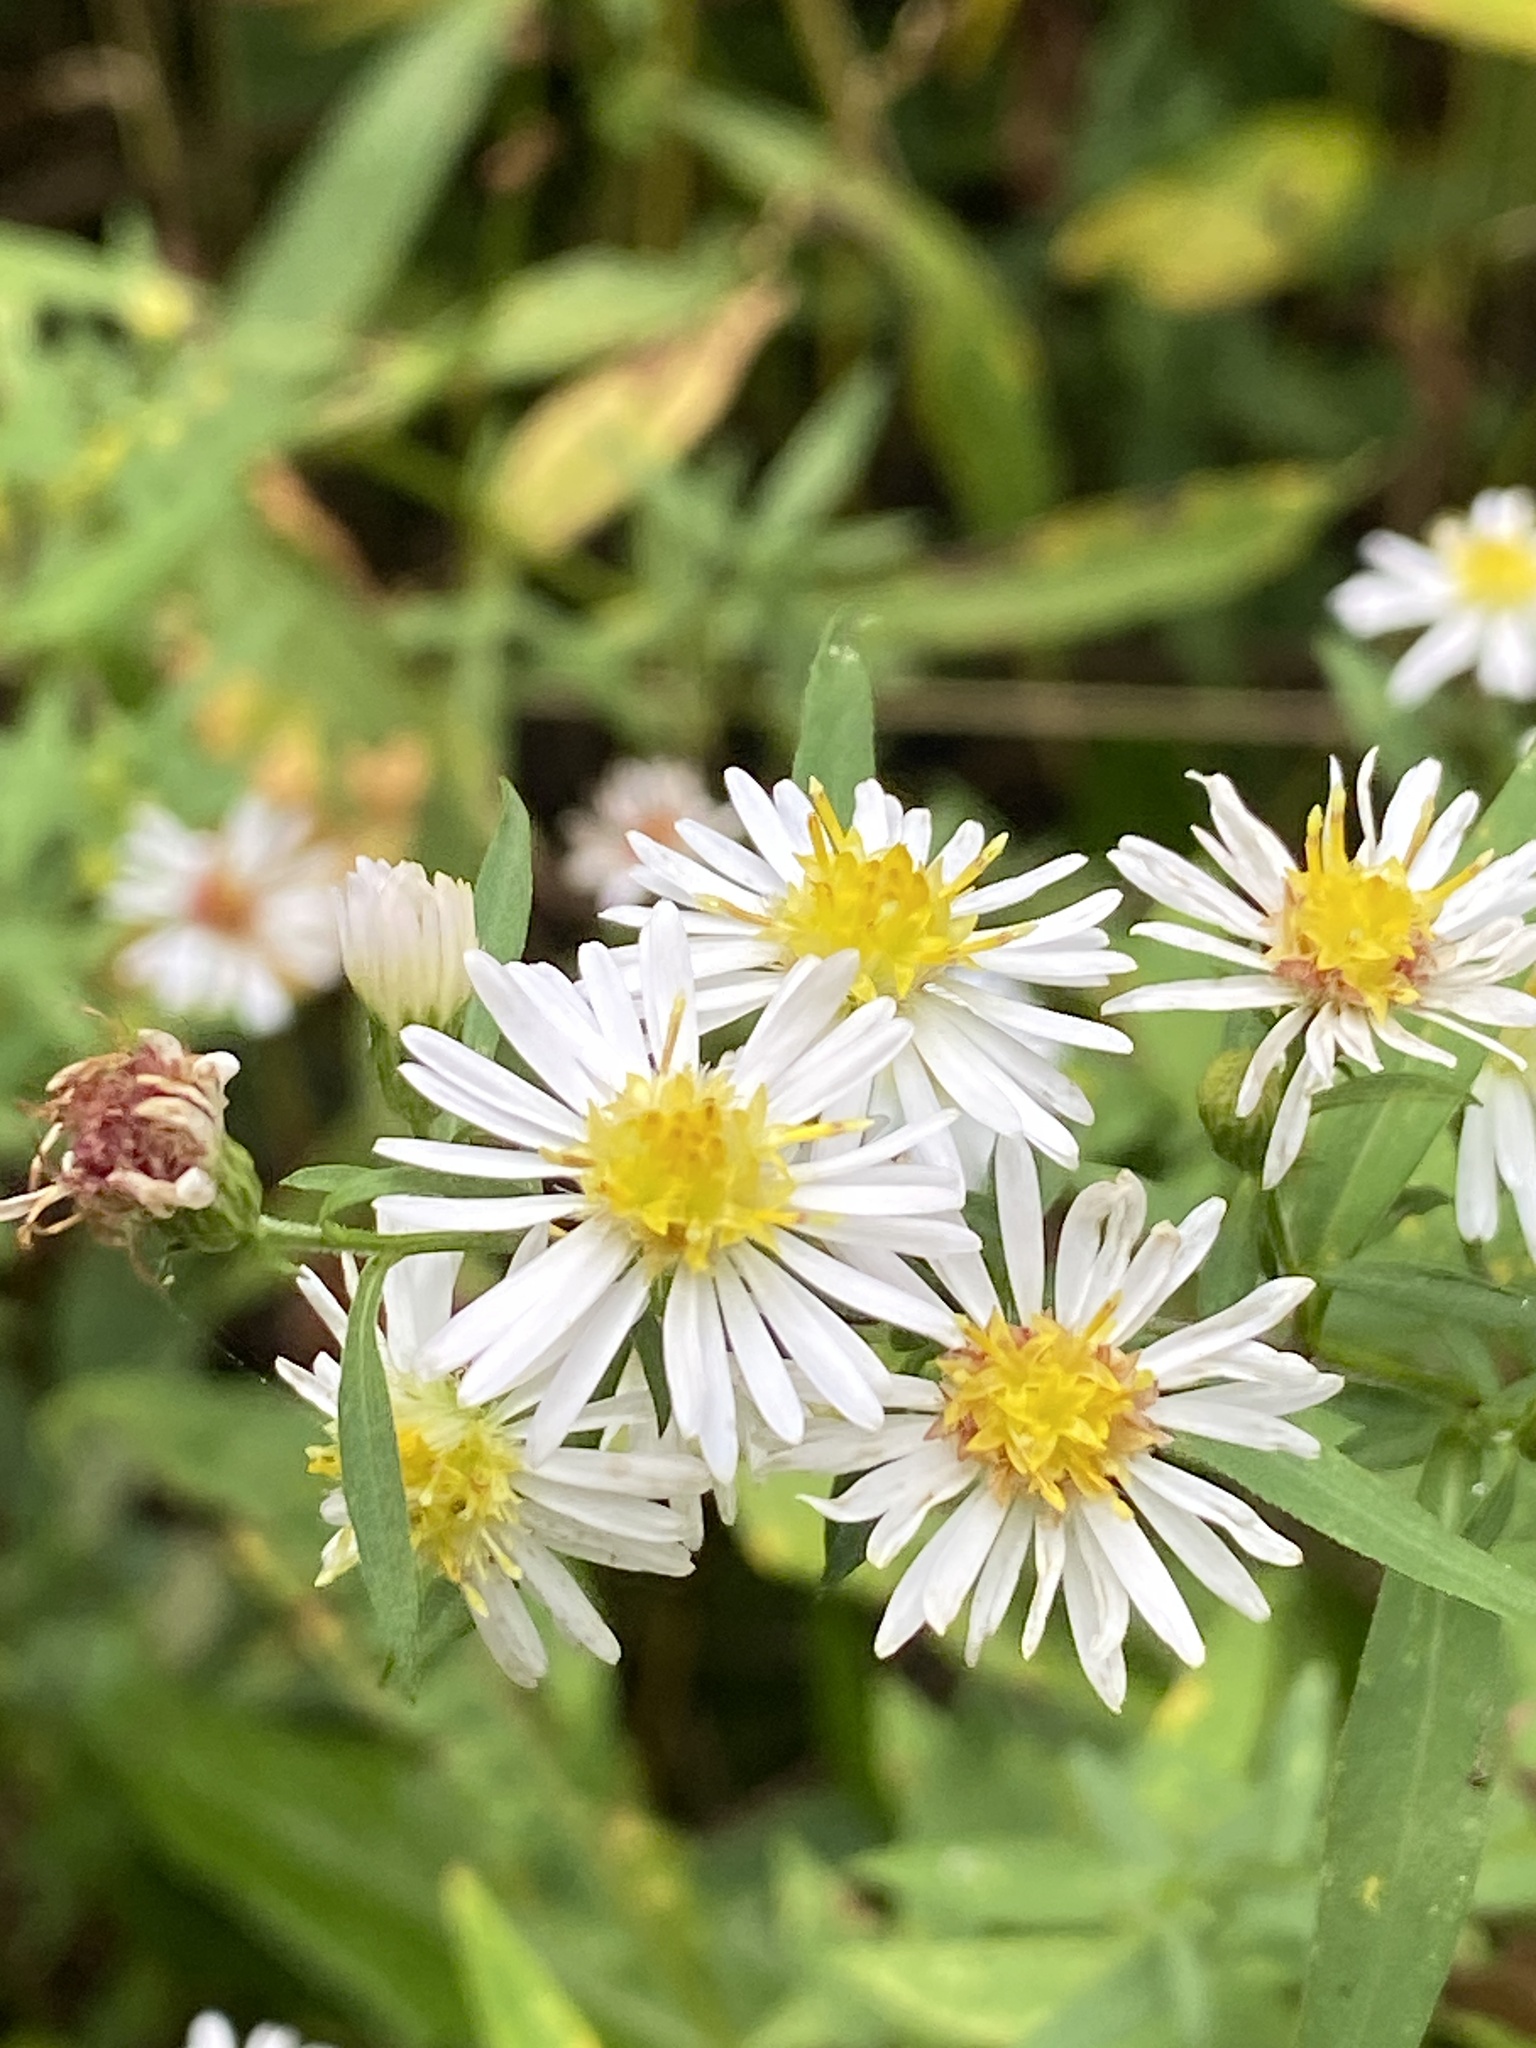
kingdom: Plantae
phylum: Tracheophyta
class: Magnoliopsida
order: Asterales
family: Asteraceae
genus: Symphyotrichum
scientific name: Symphyotrichum lanceolatum
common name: Panicled aster
